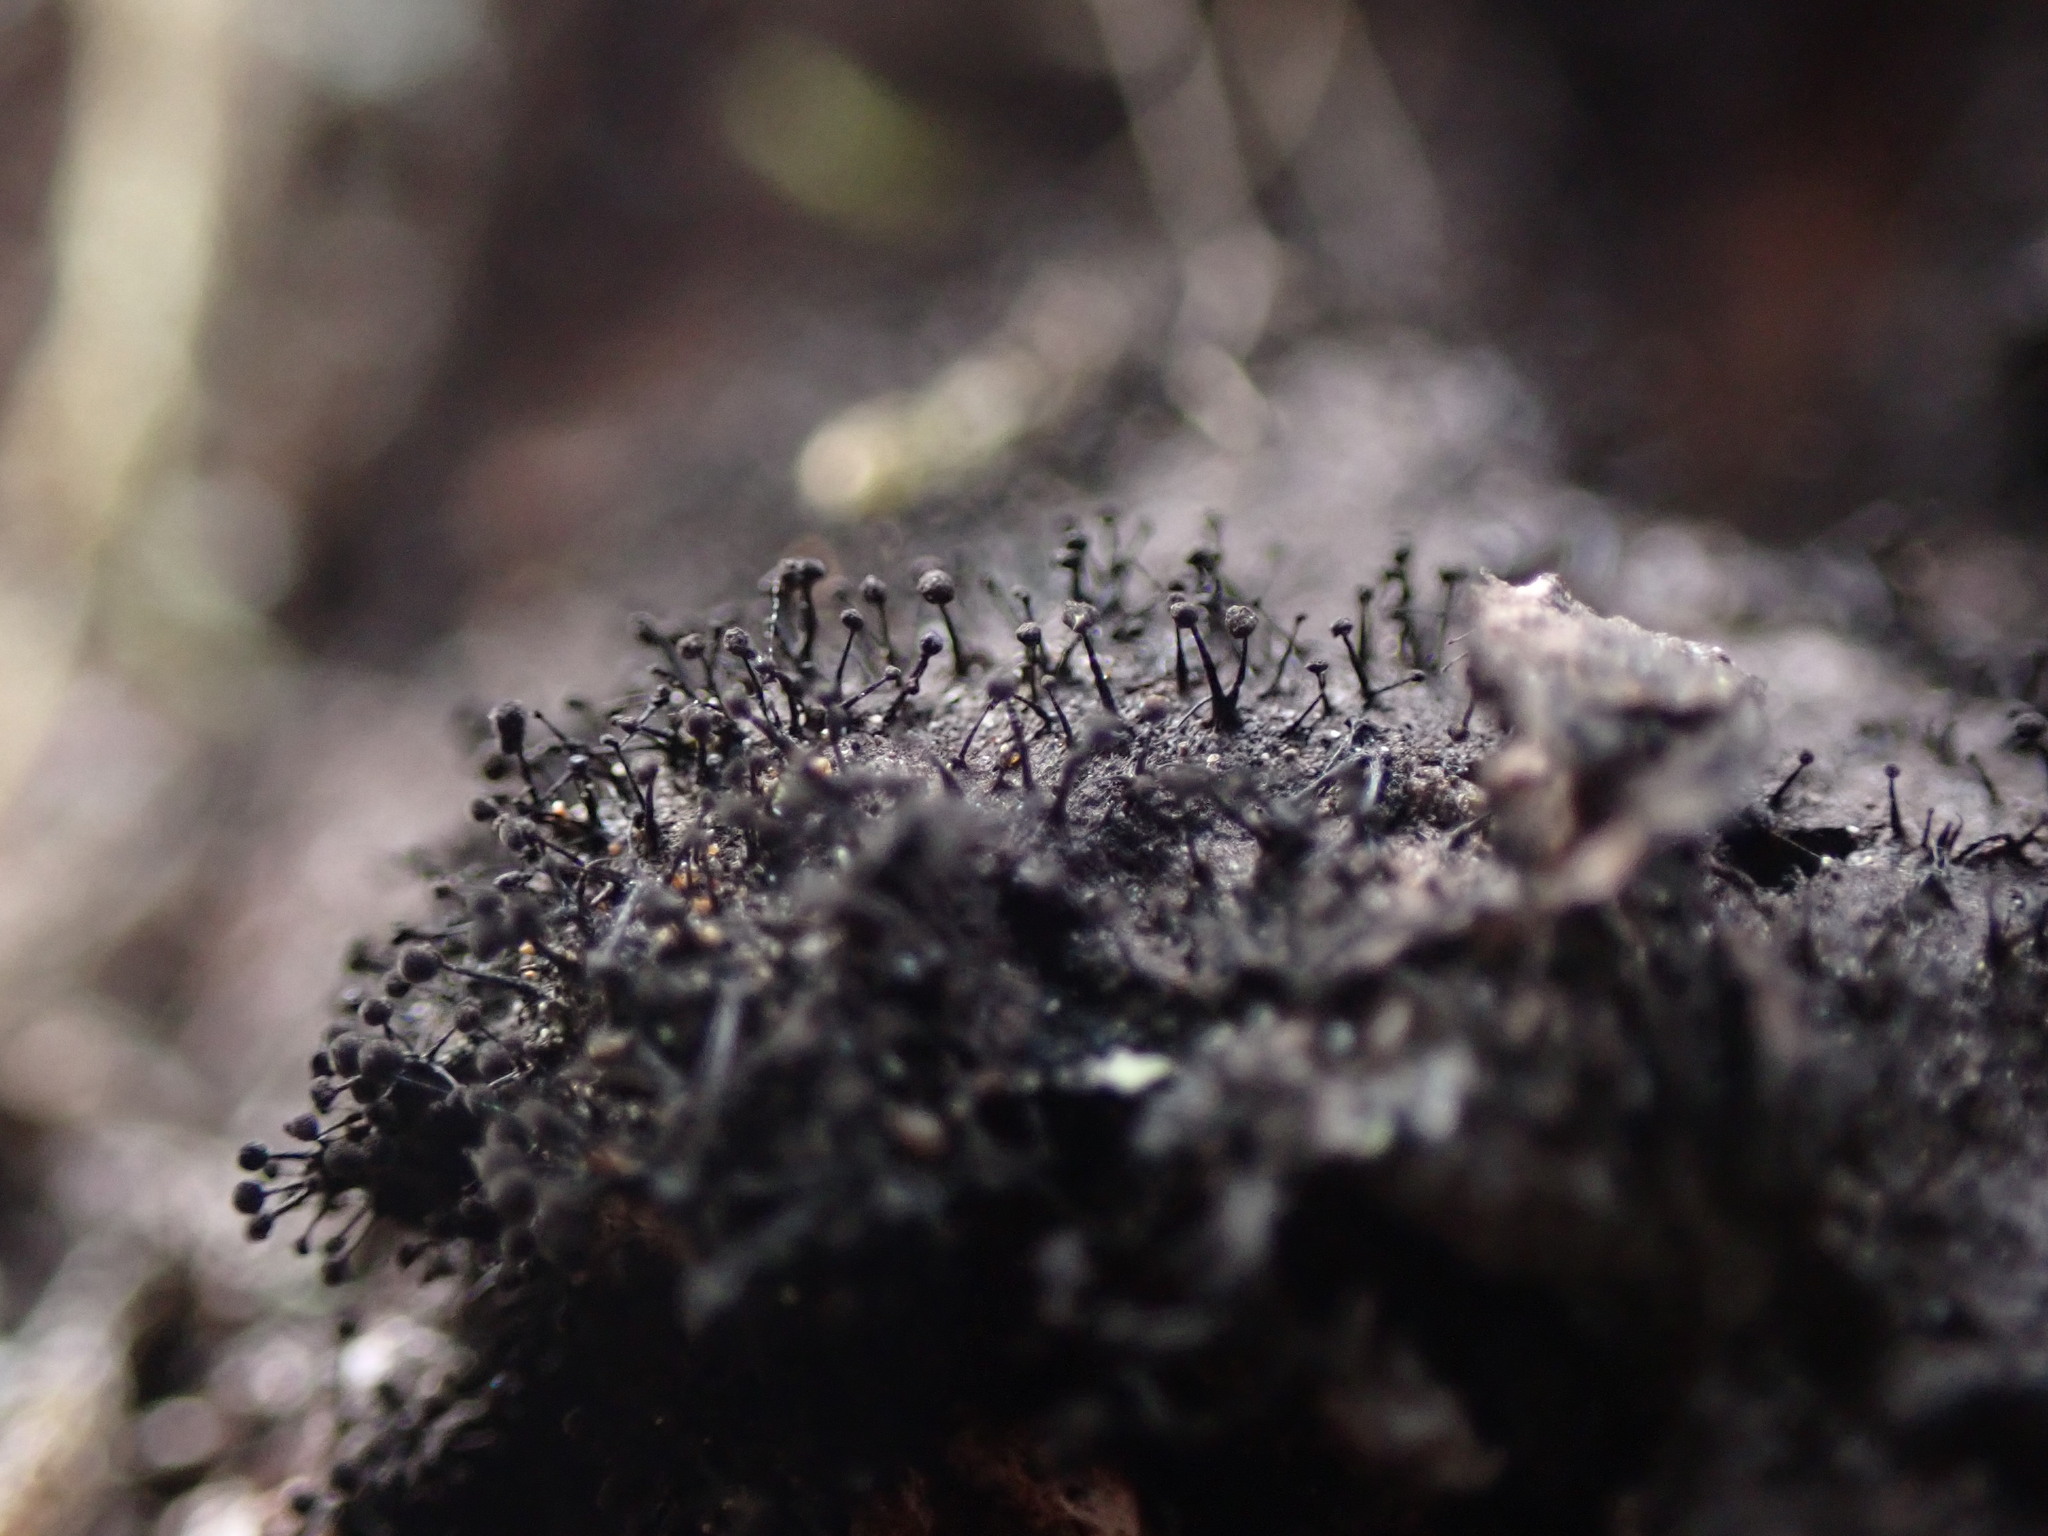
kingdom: Fungi
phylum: Ascomycota
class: Leotiomycetes
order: Helotiales
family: Amorphothecaceae
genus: Sorocybe
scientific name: Sorocybe resinae
